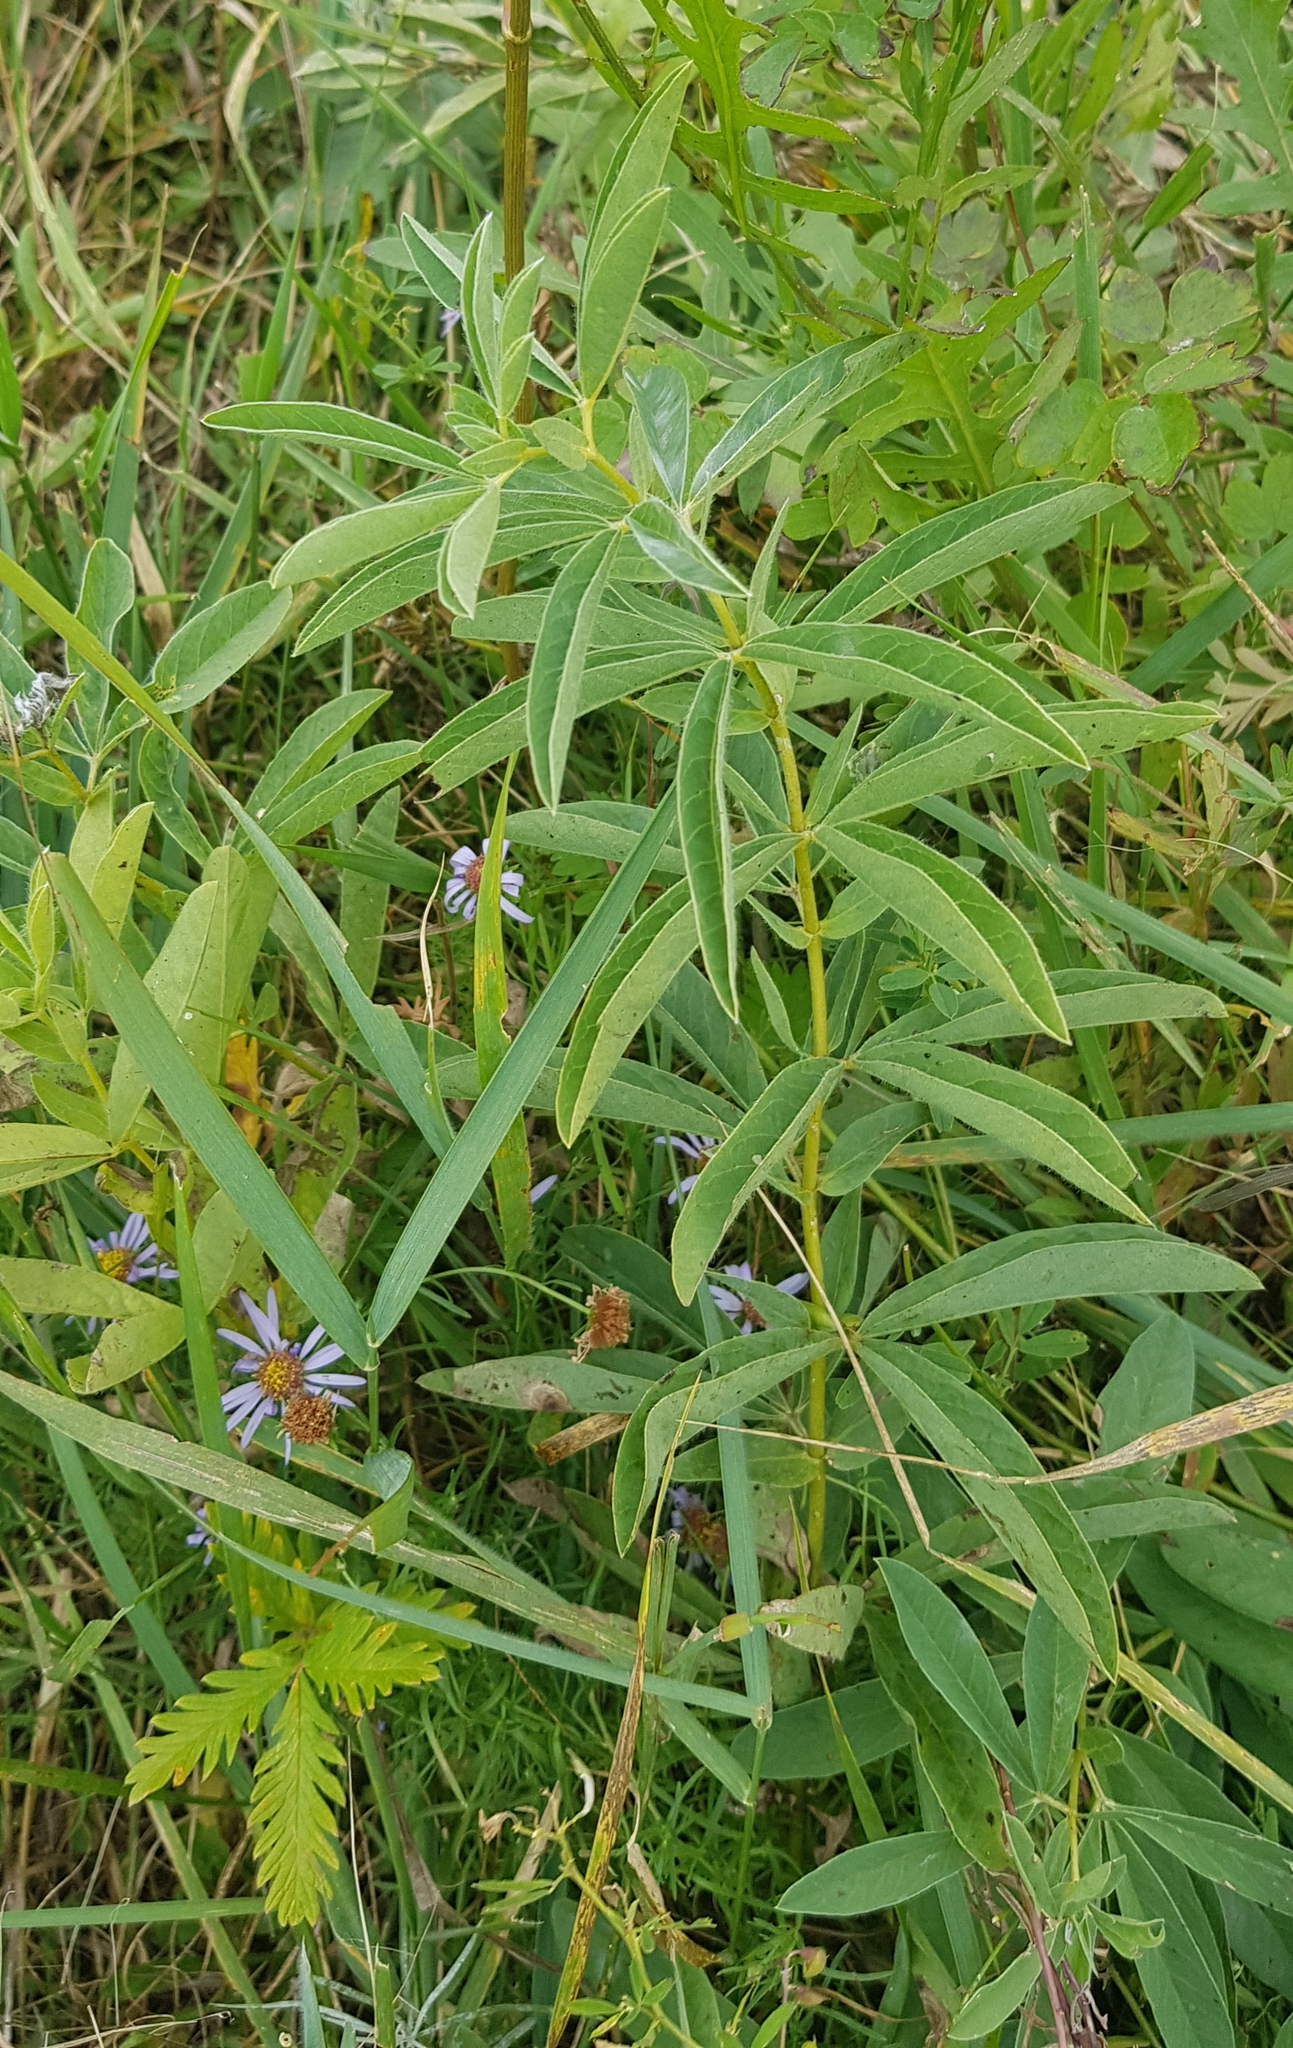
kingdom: Plantae
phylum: Tracheophyta
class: Magnoliopsida
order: Fabales
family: Fabaceae
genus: Thermopsis
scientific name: Thermopsis dahurica
